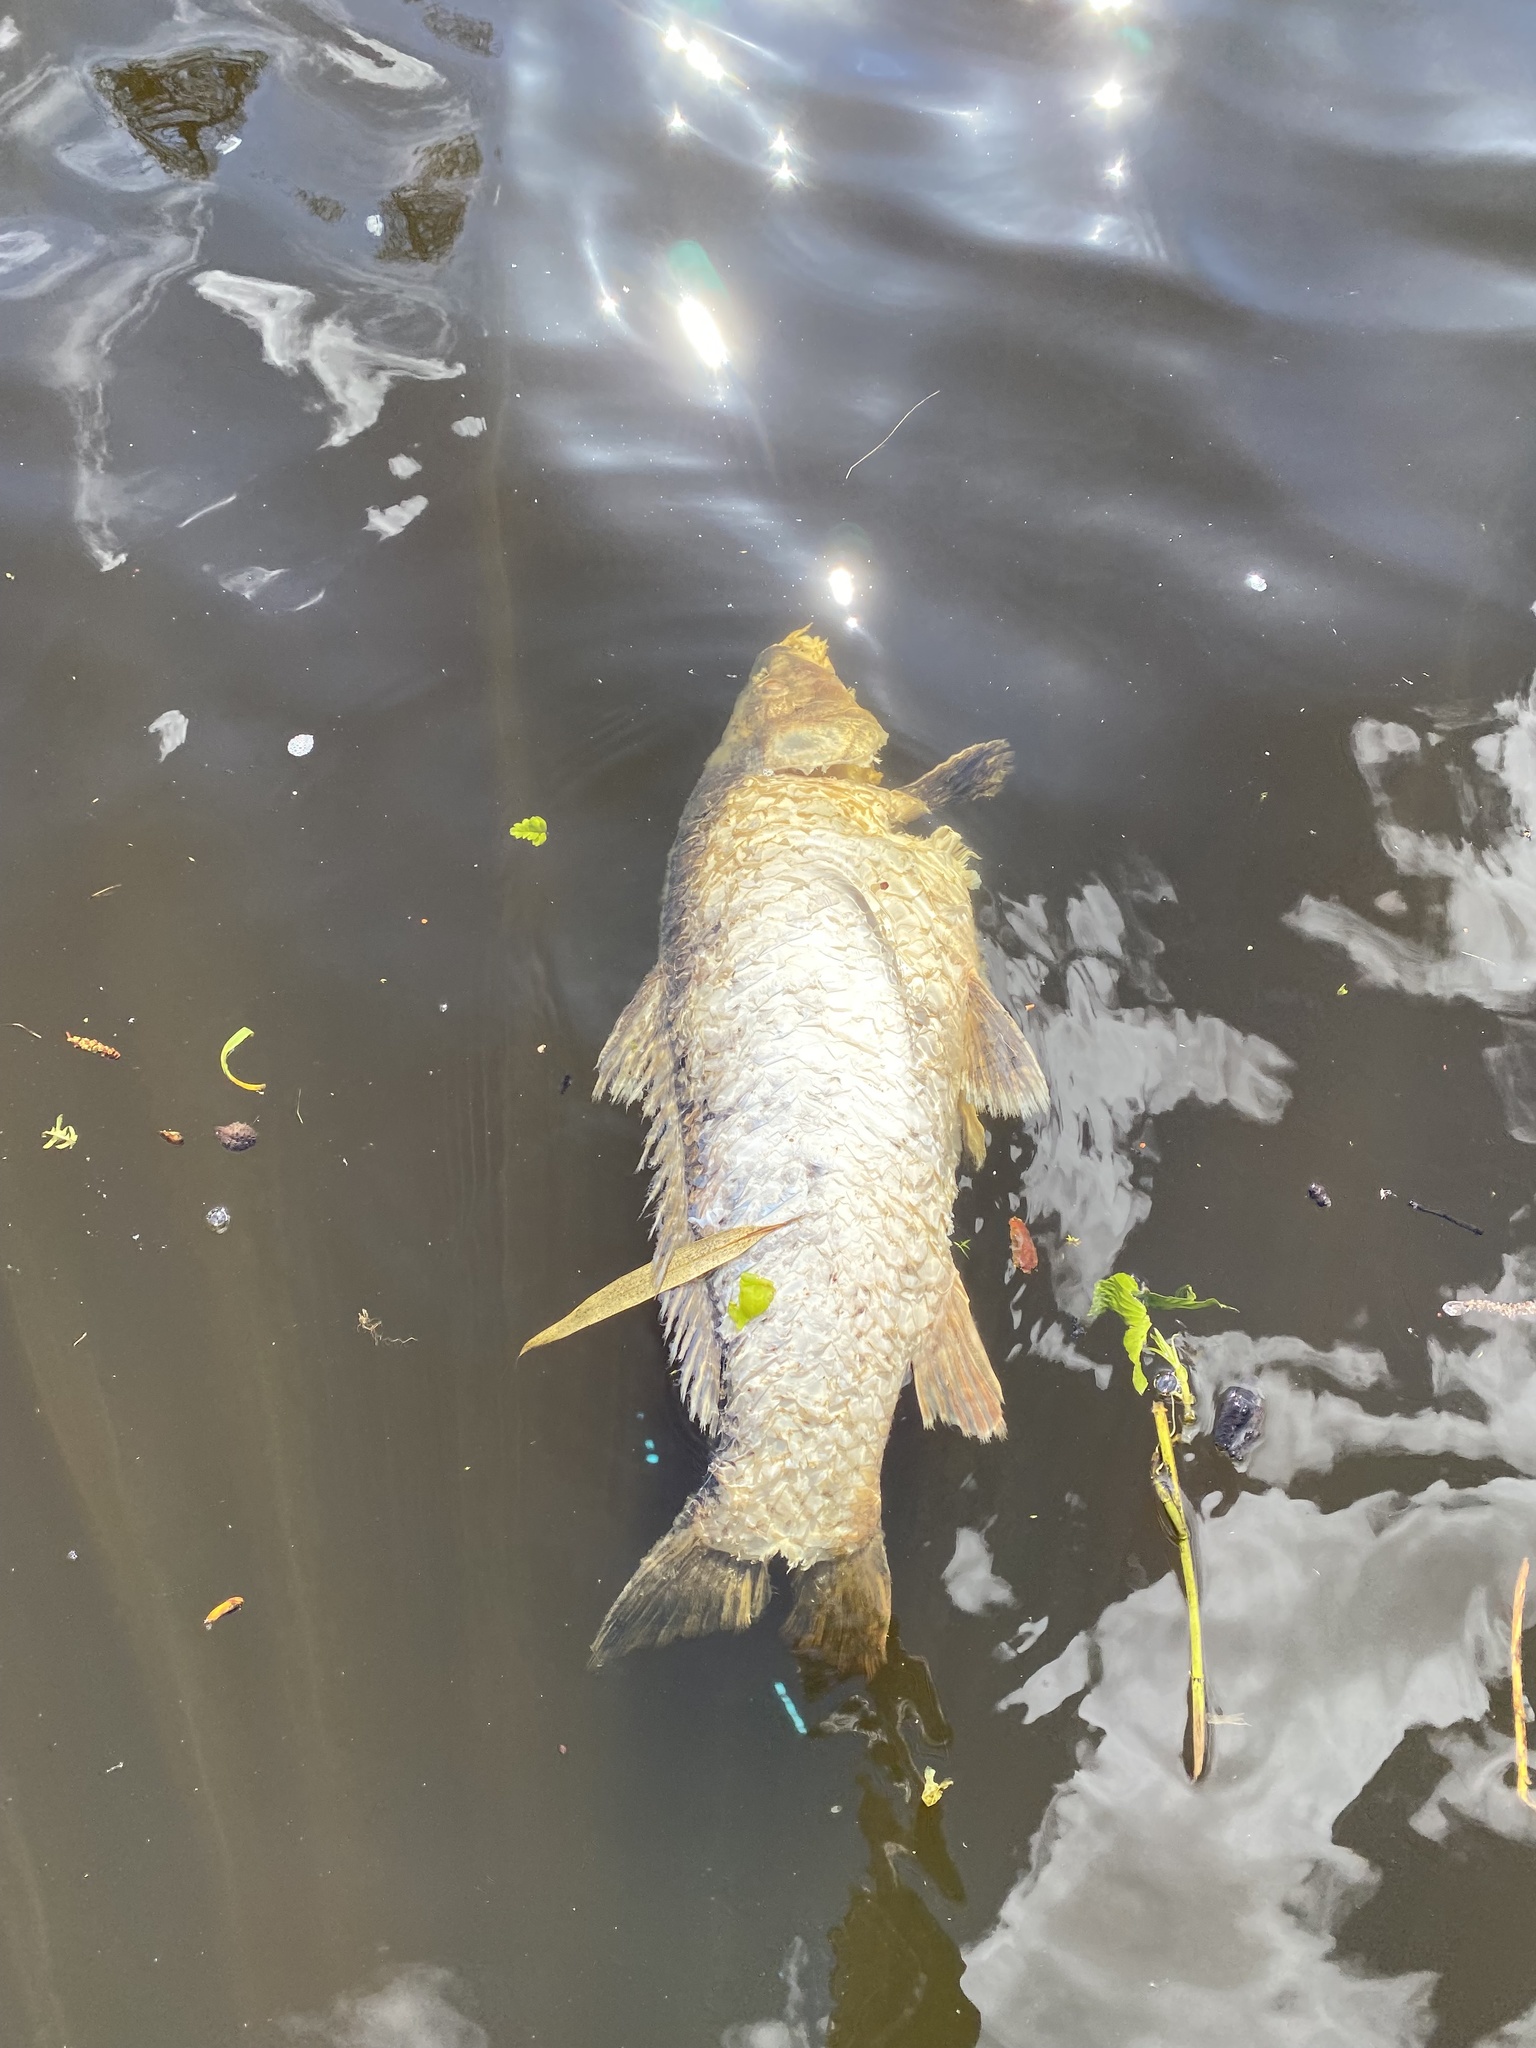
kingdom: Animalia
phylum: Chordata
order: Cypriniformes
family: Cyprinidae
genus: Cyprinus
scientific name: Cyprinus carpio
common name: Common carp
